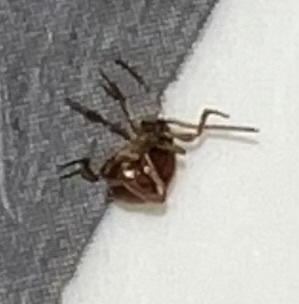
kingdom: Animalia
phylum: Arthropoda
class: Insecta
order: Coleoptera
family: Ptinidae
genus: Gibbium
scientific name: Gibbium aequinoctiale
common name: Smooth spider beetle
